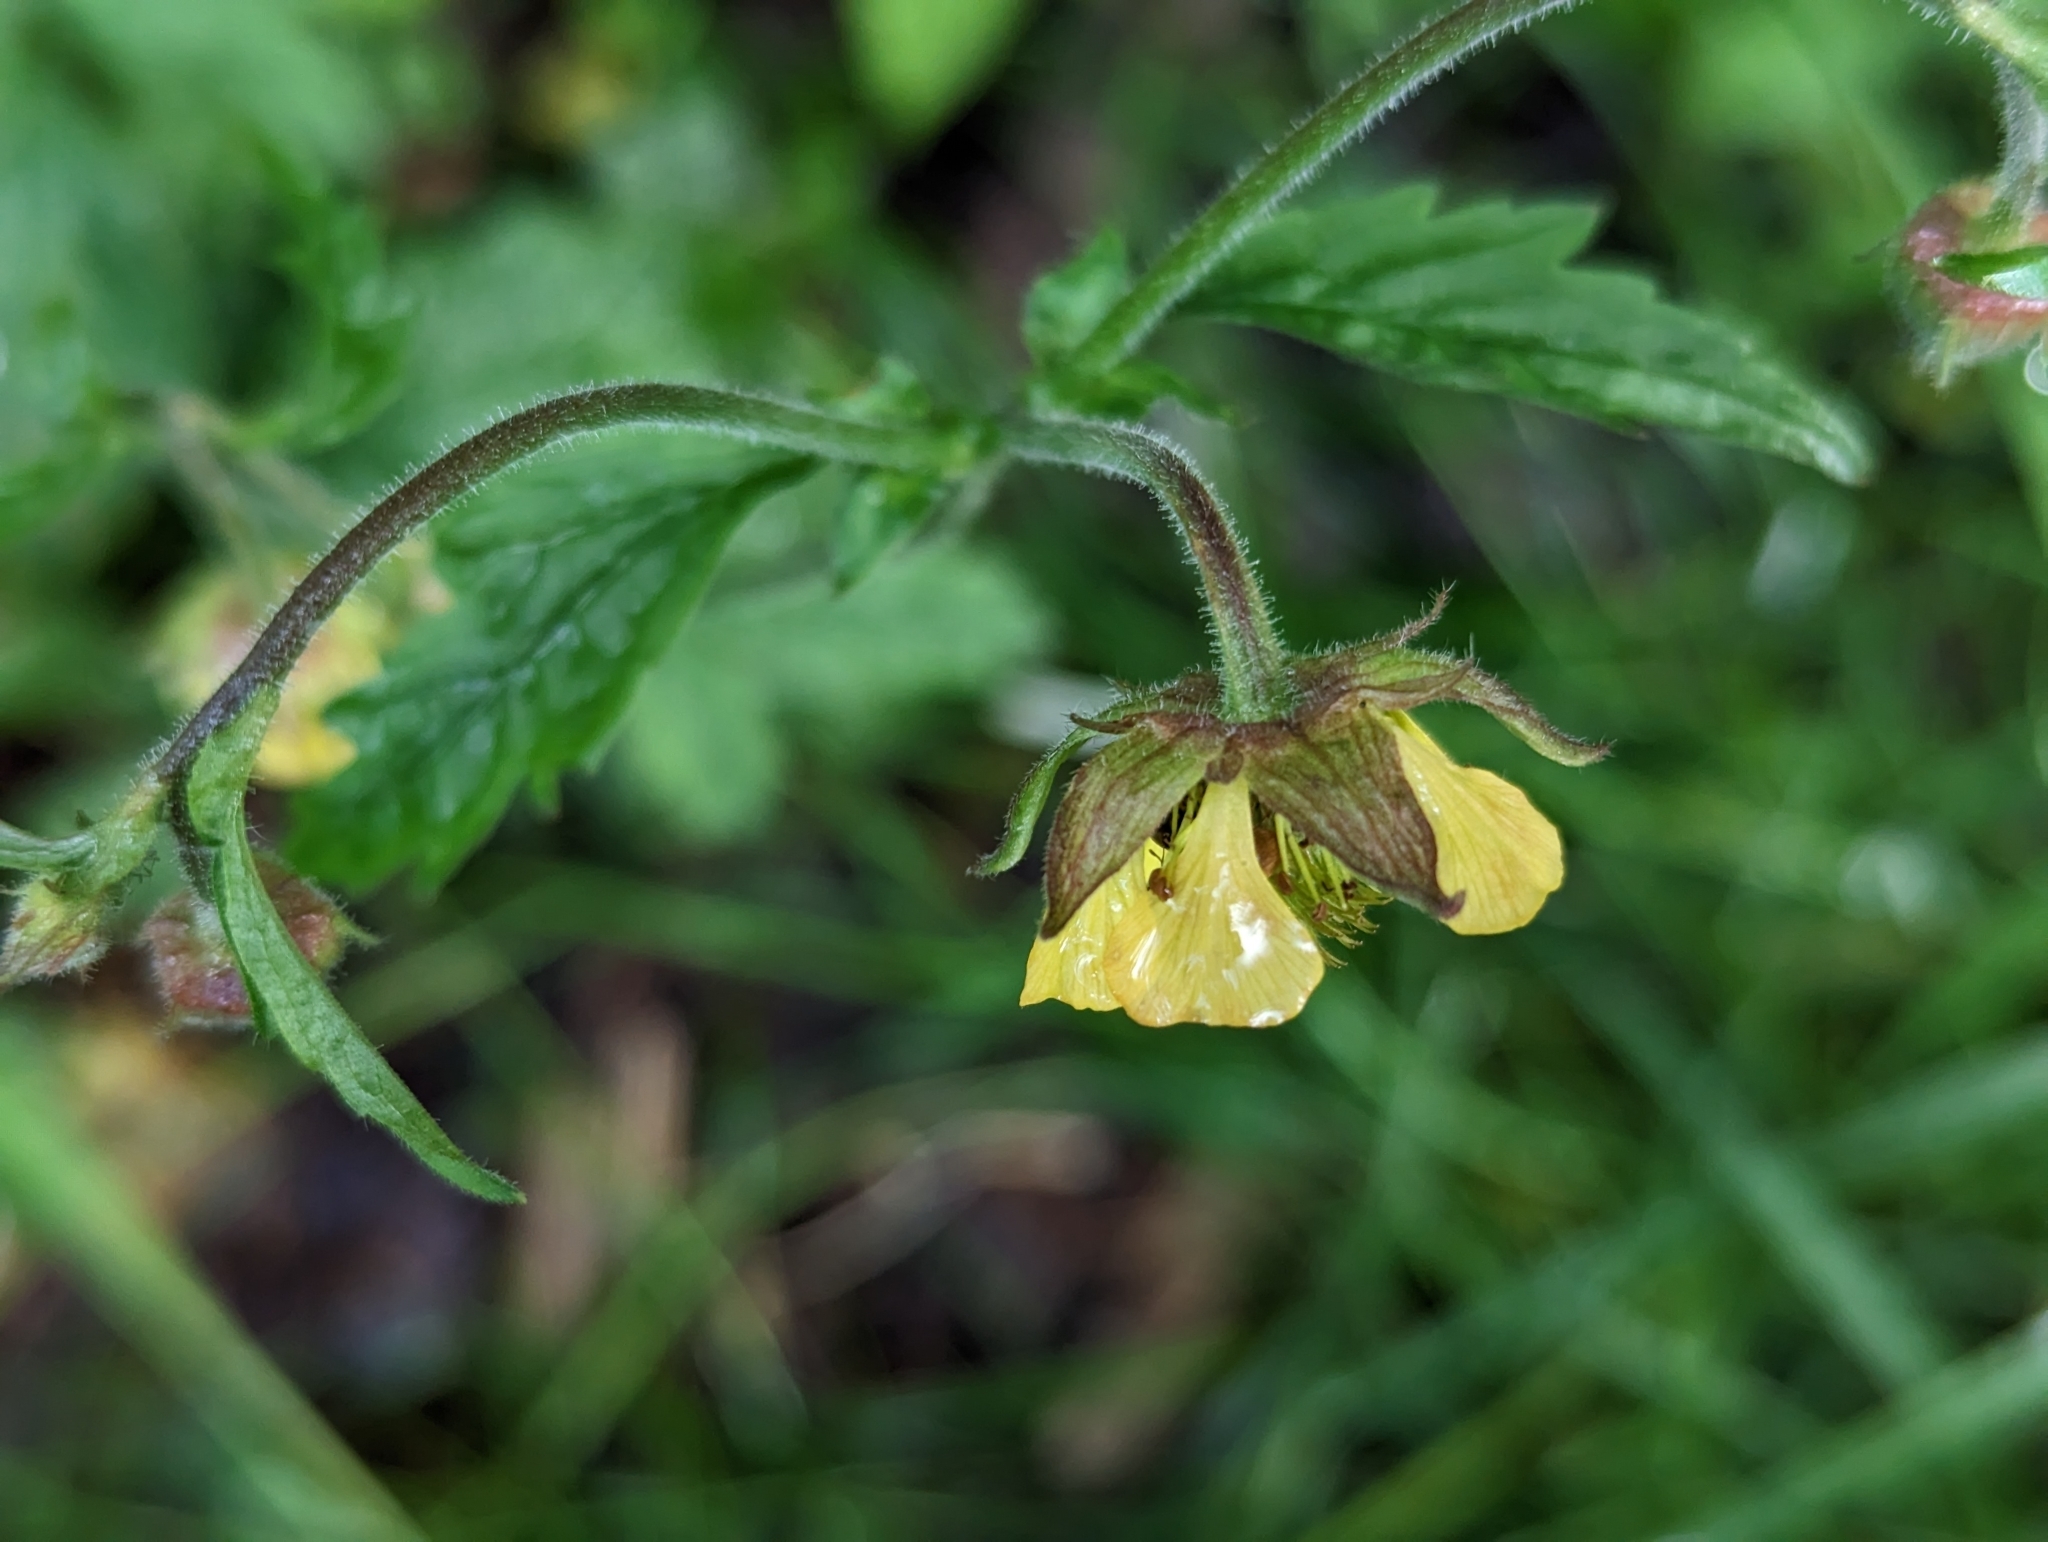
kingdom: Plantae
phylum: Tracheophyta
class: Magnoliopsida
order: Rosales
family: Rosaceae
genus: Geum
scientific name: Geum intermedium
